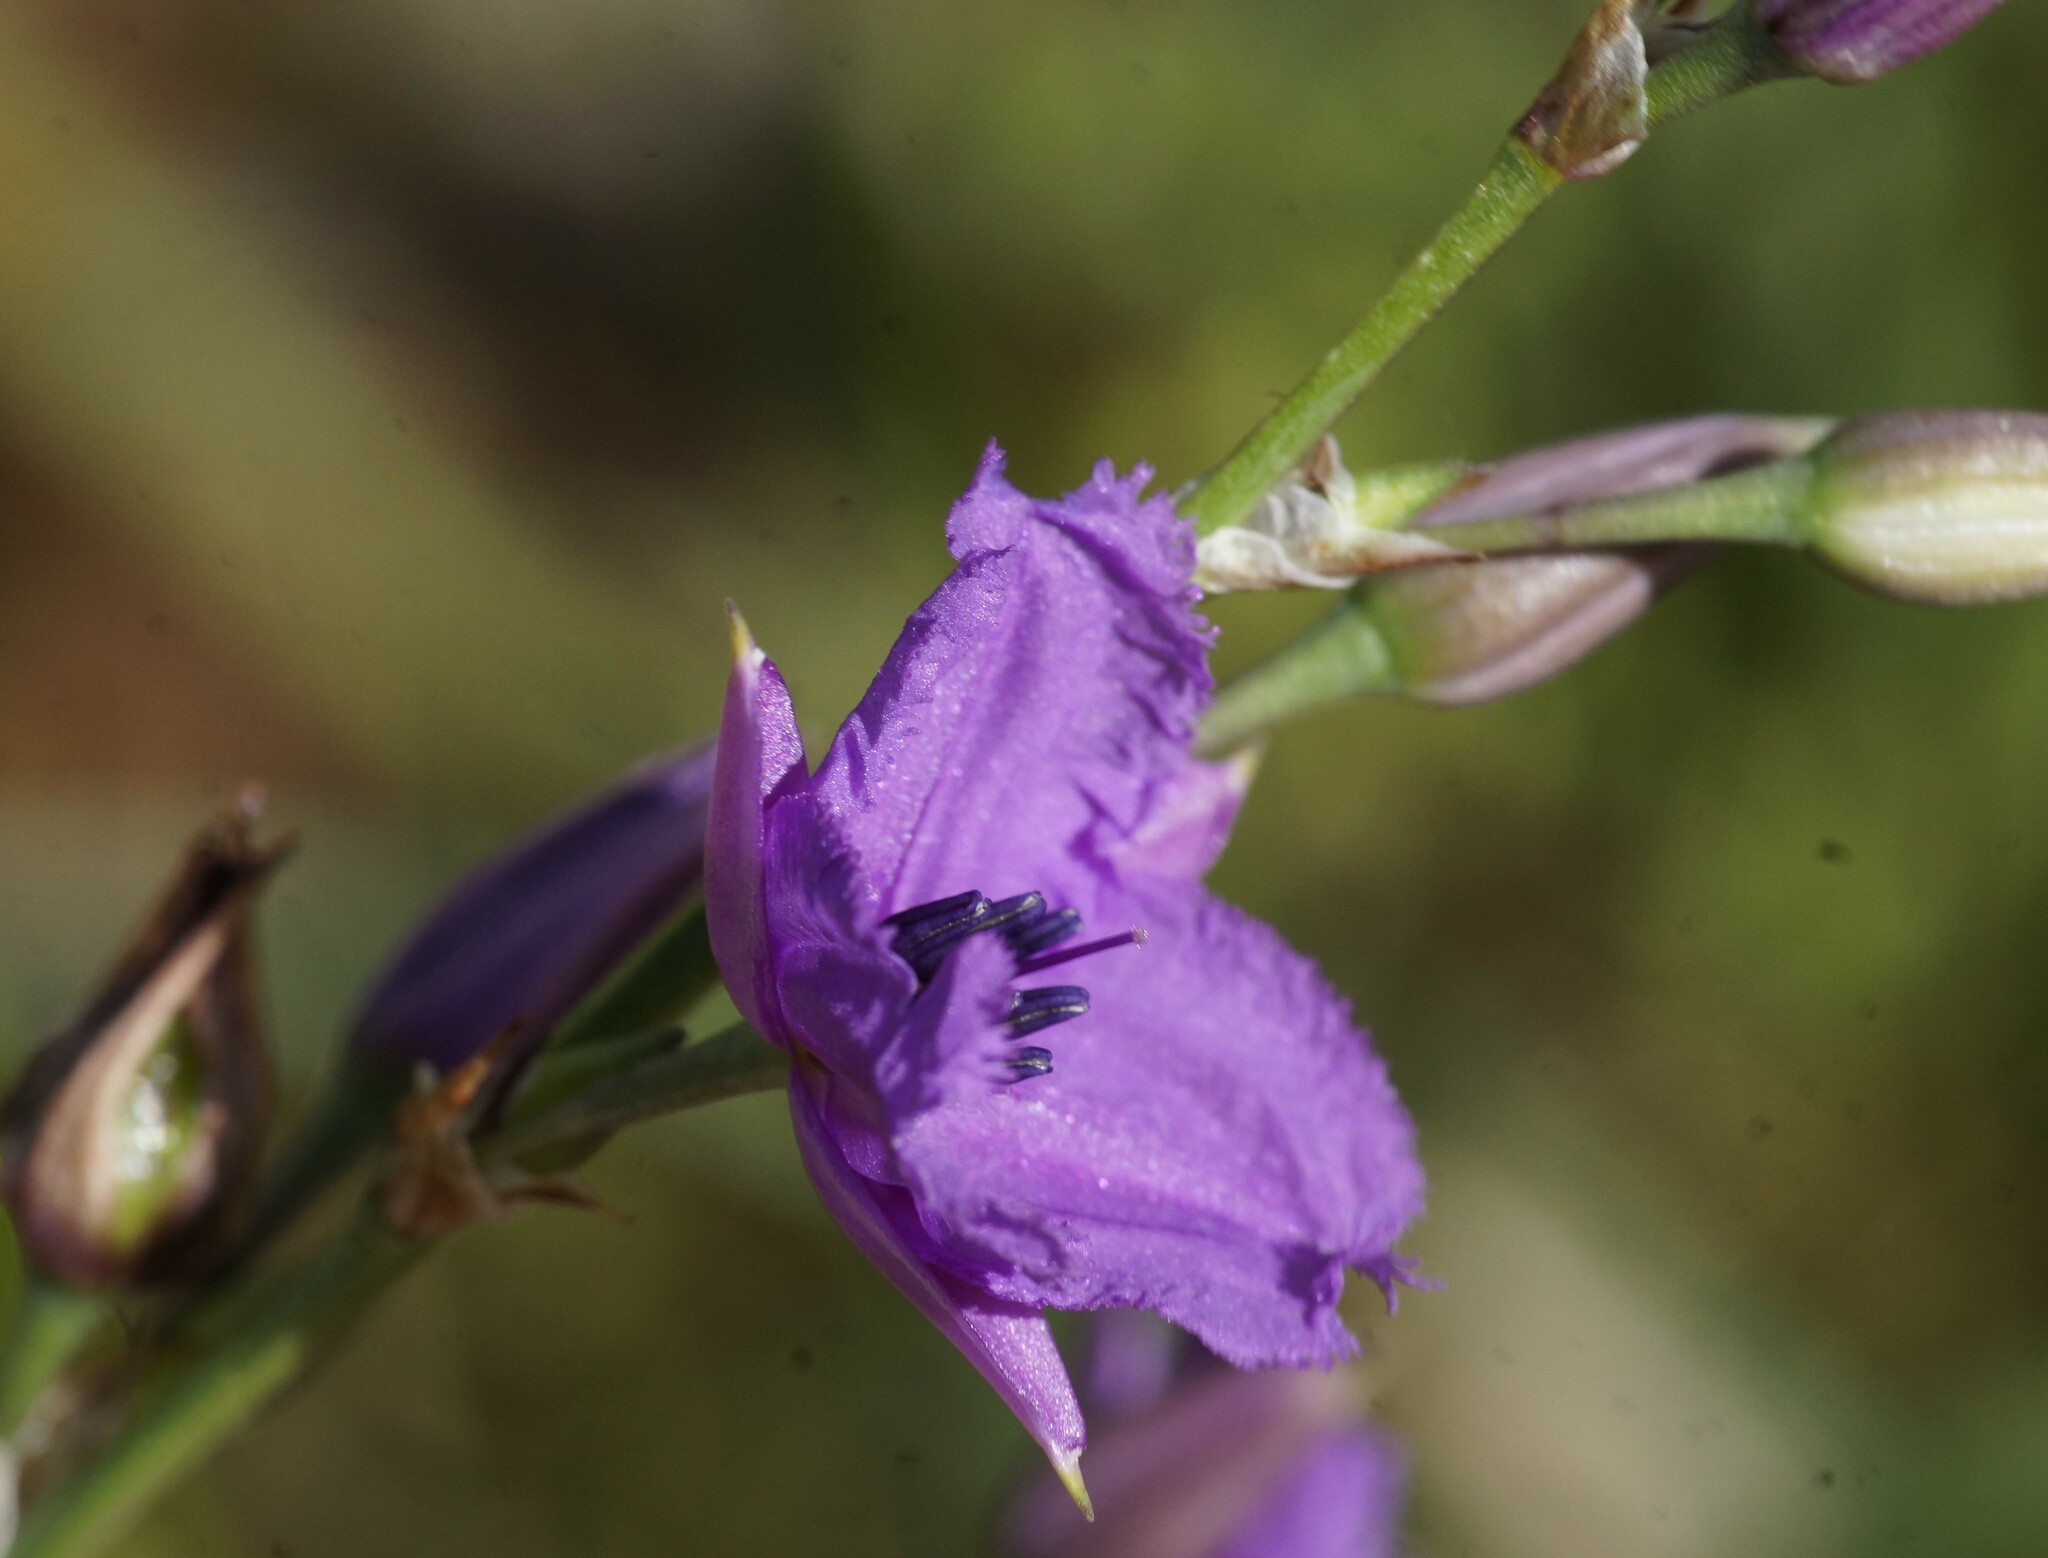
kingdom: Plantae
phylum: Tracheophyta
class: Liliopsida
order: Asparagales
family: Asparagaceae
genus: Arthropodium
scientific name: Arthropodium strictum
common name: Chocolate-lily
